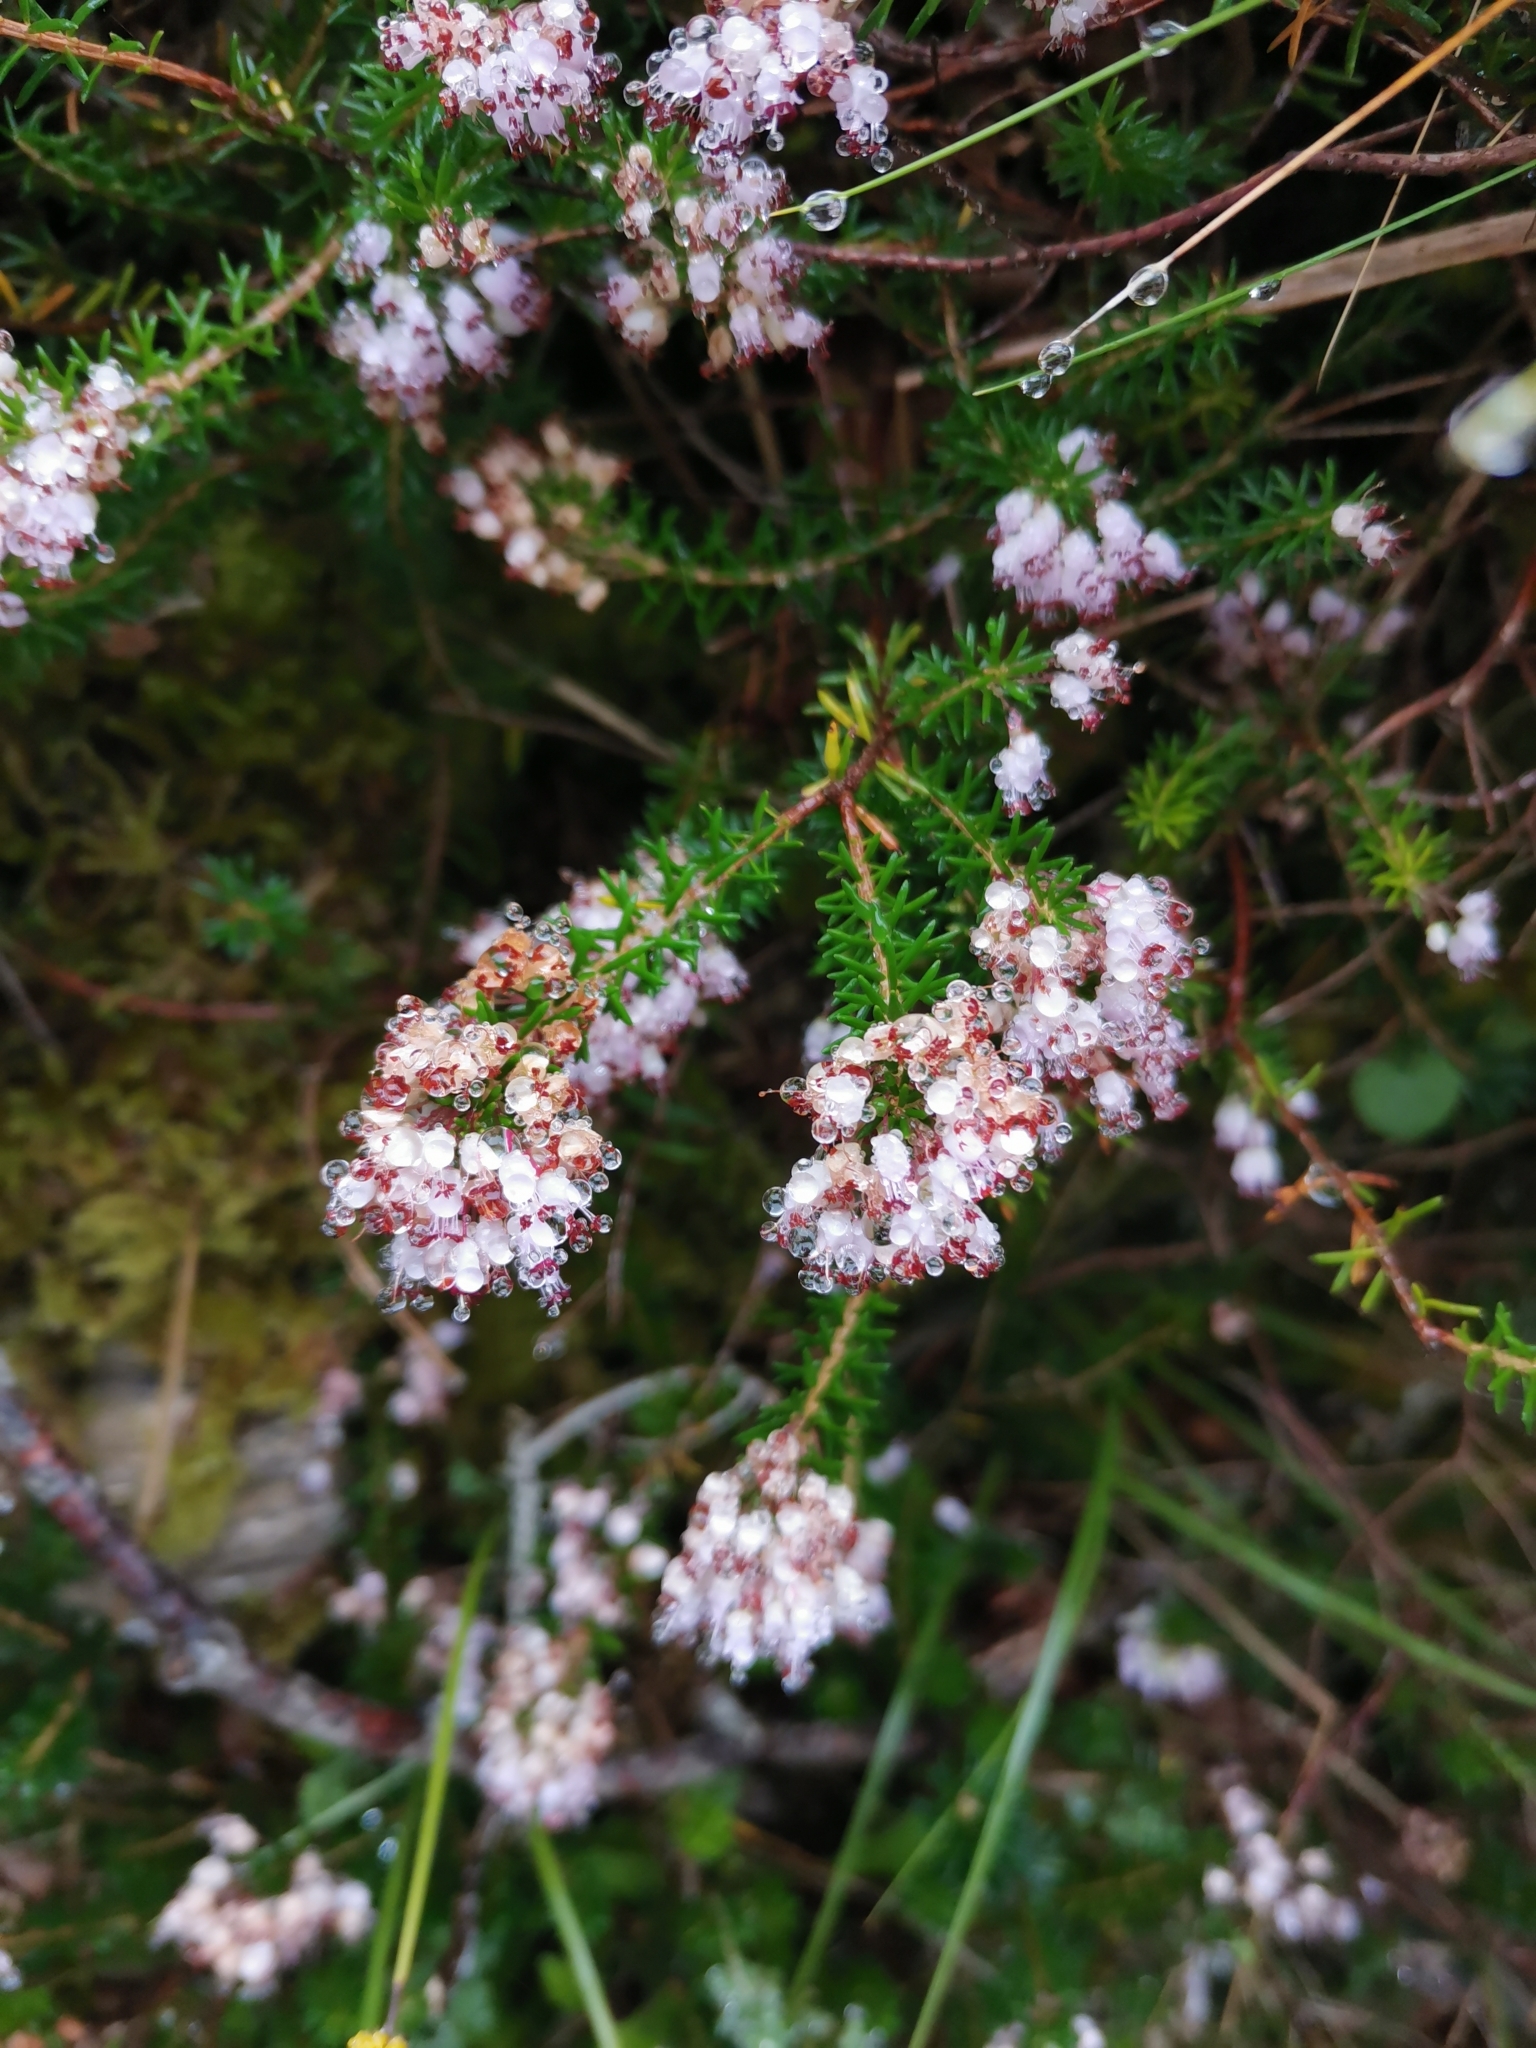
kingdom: Plantae
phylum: Tracheophyta
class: Magnoliopsida
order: Ericales
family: Ericaceae
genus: Erica
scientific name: Erica vagans
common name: Cornish heath
